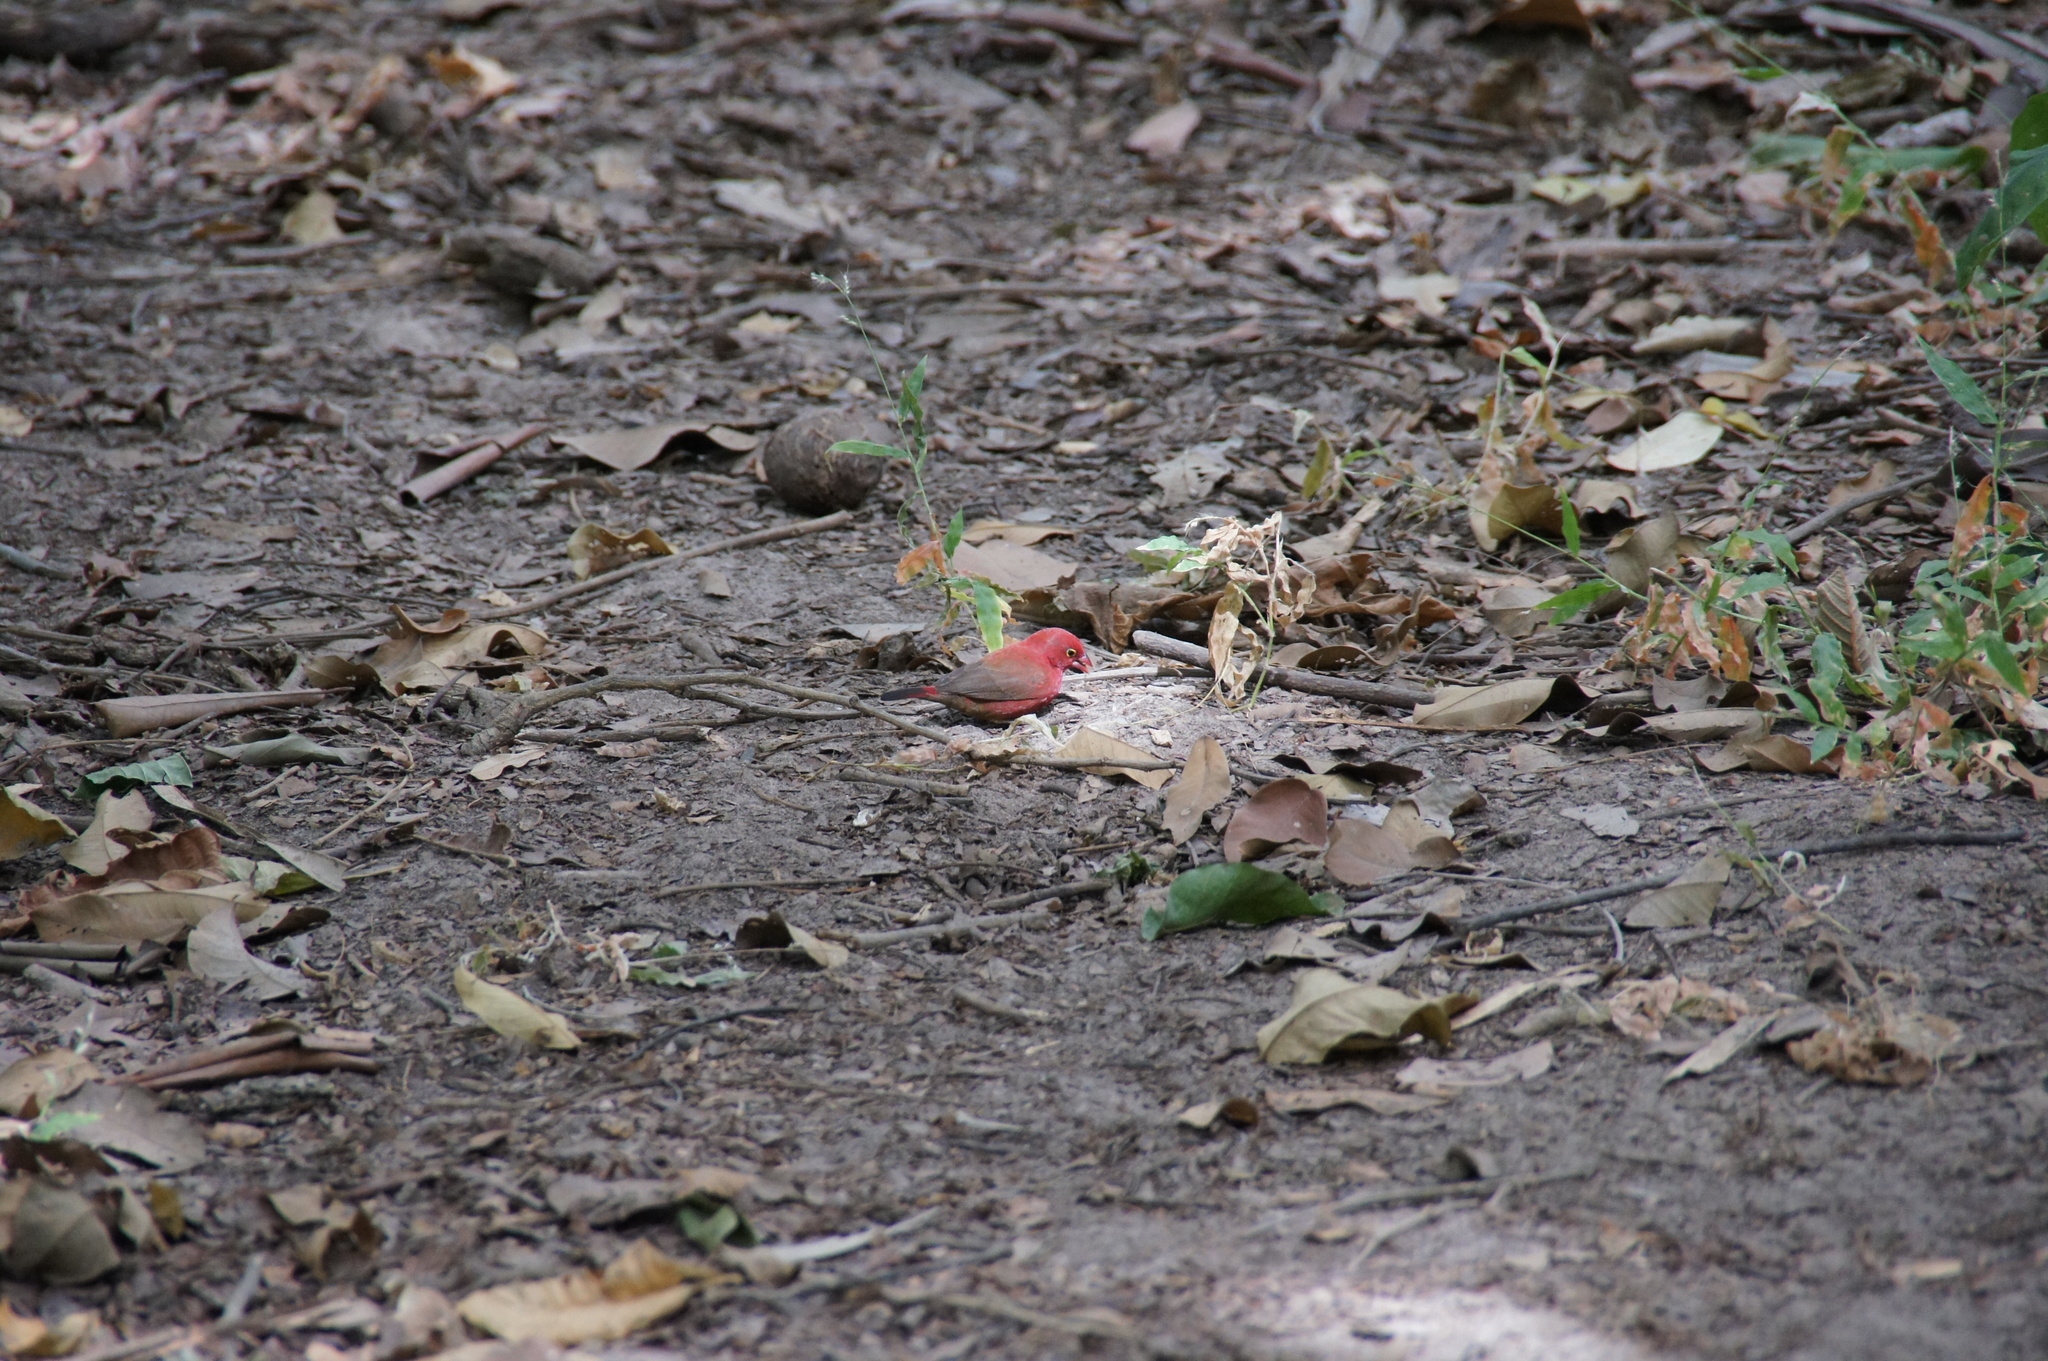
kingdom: Animalia
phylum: Chordata
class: Aves
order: Passeriformes
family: Estrildidae
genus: Lagonosticta
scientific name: Lagonosticta senegala
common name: Red-billed firefinch
